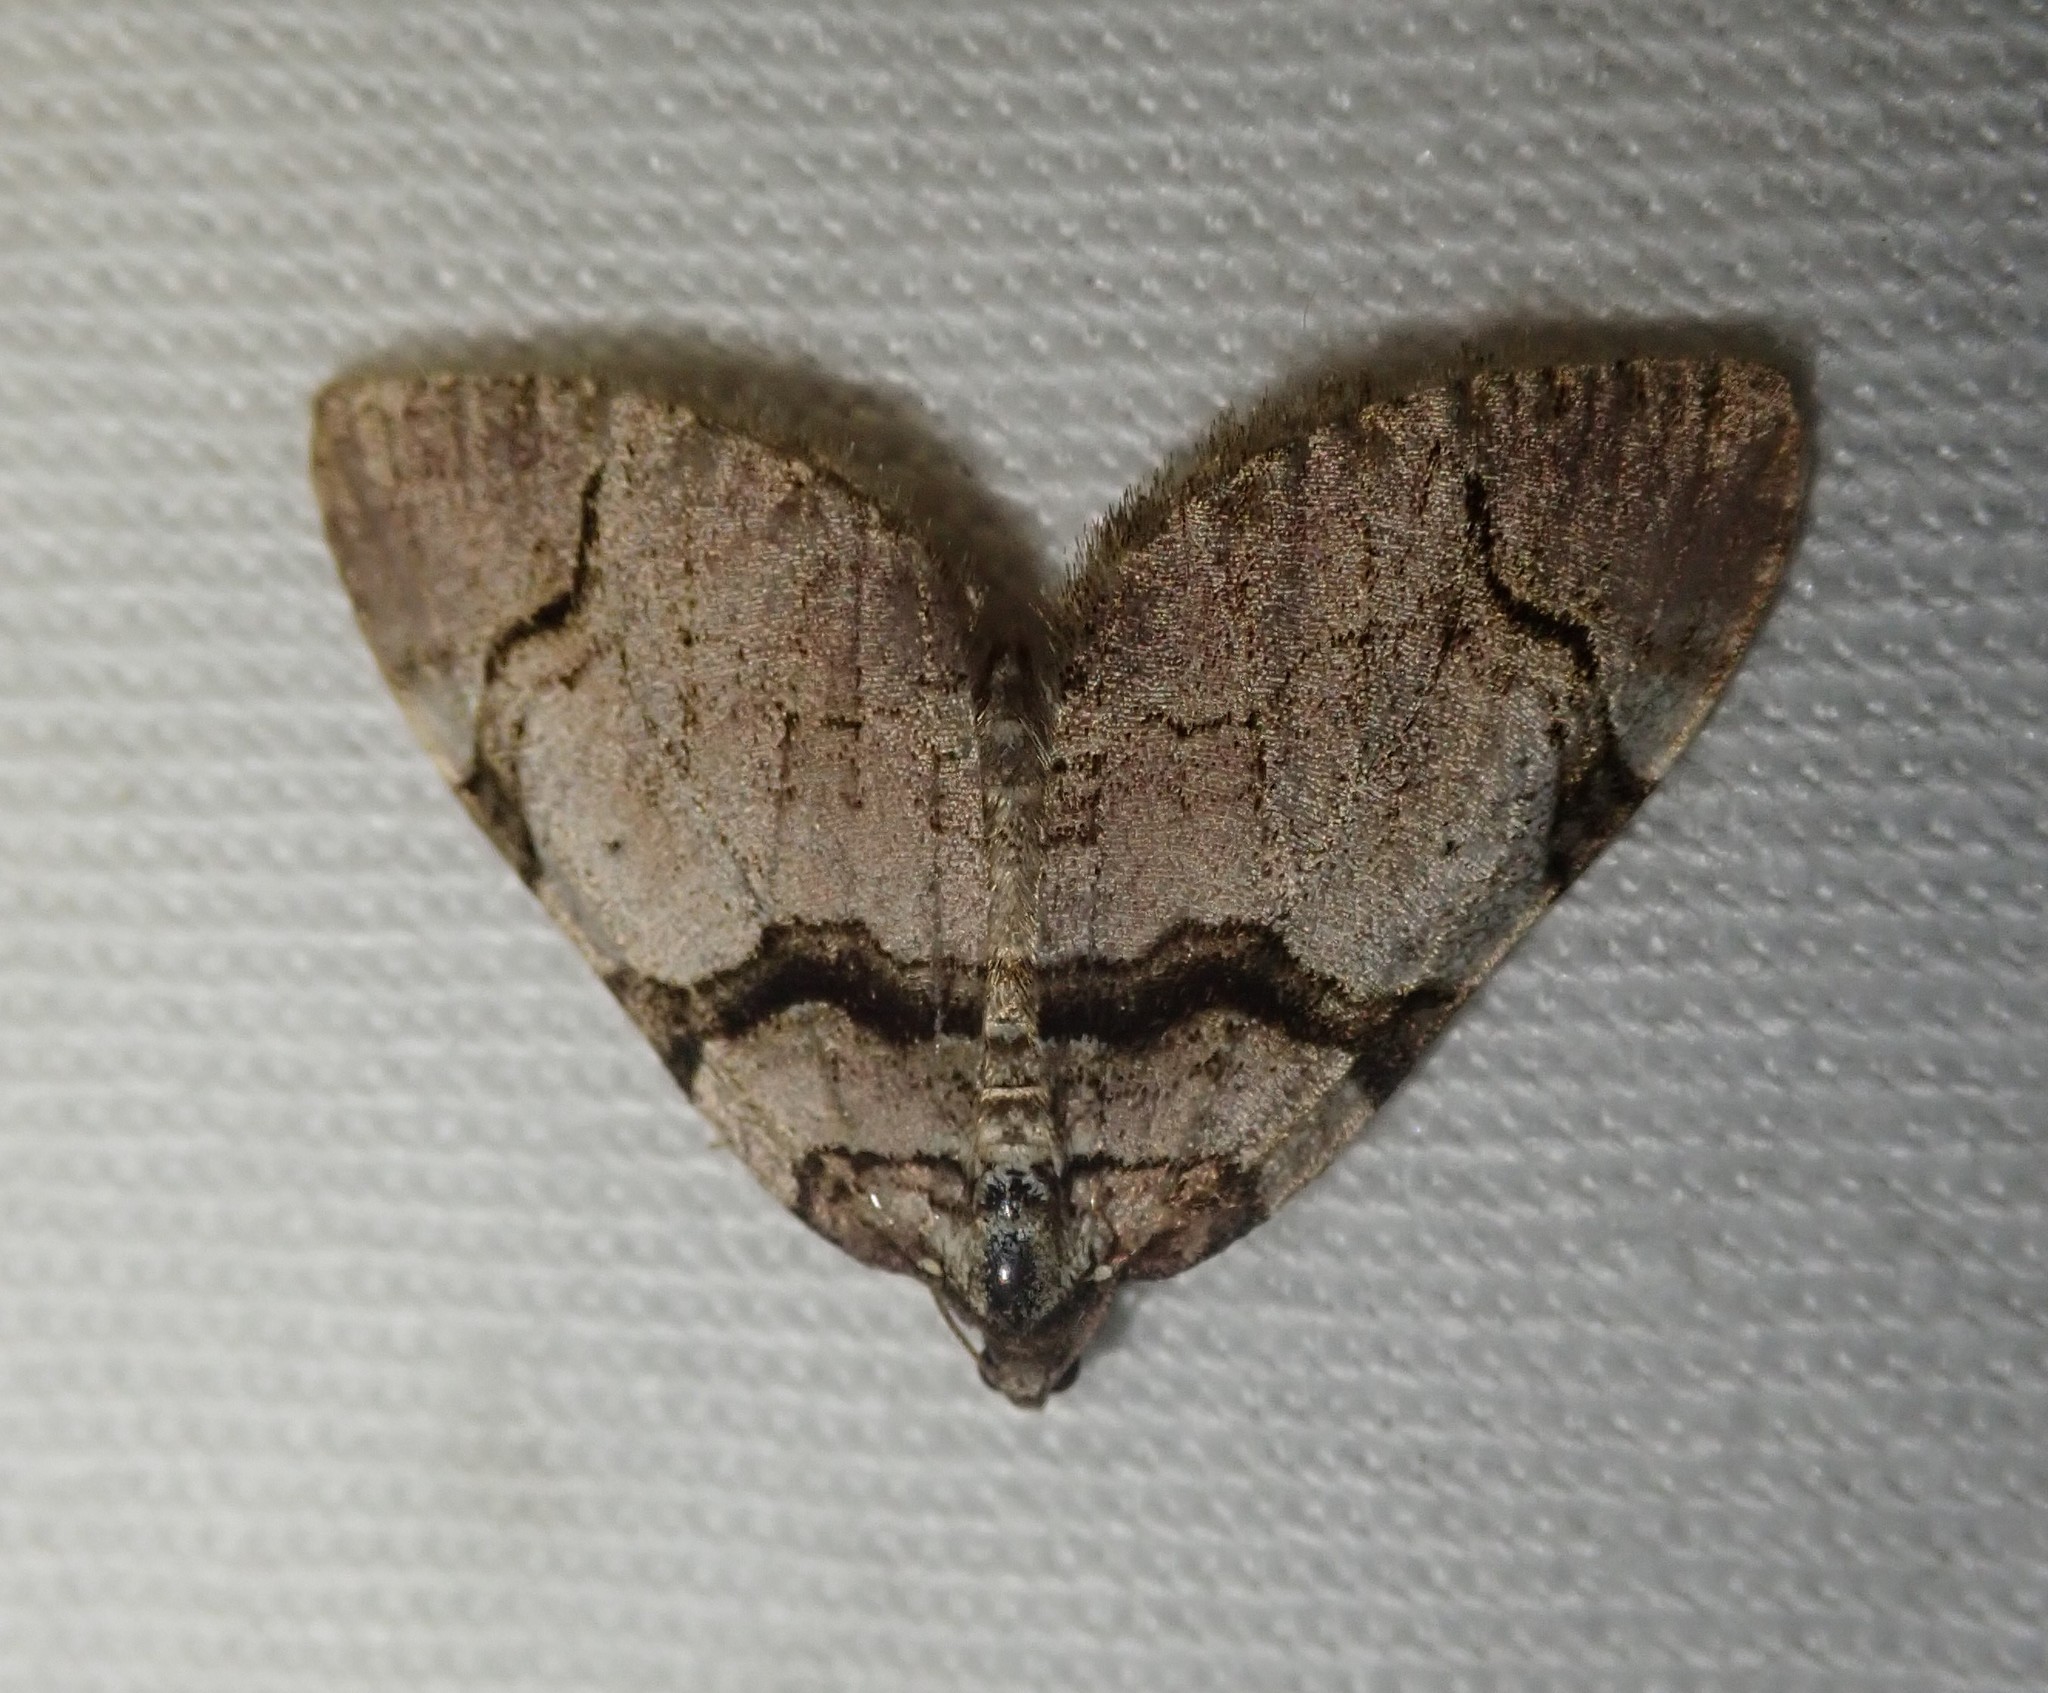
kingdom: Animalia
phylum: Arthropoda
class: Insecta
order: Lepidoptera
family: Geometridae
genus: Anticlea
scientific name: Anticlea derivata
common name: Streamer
